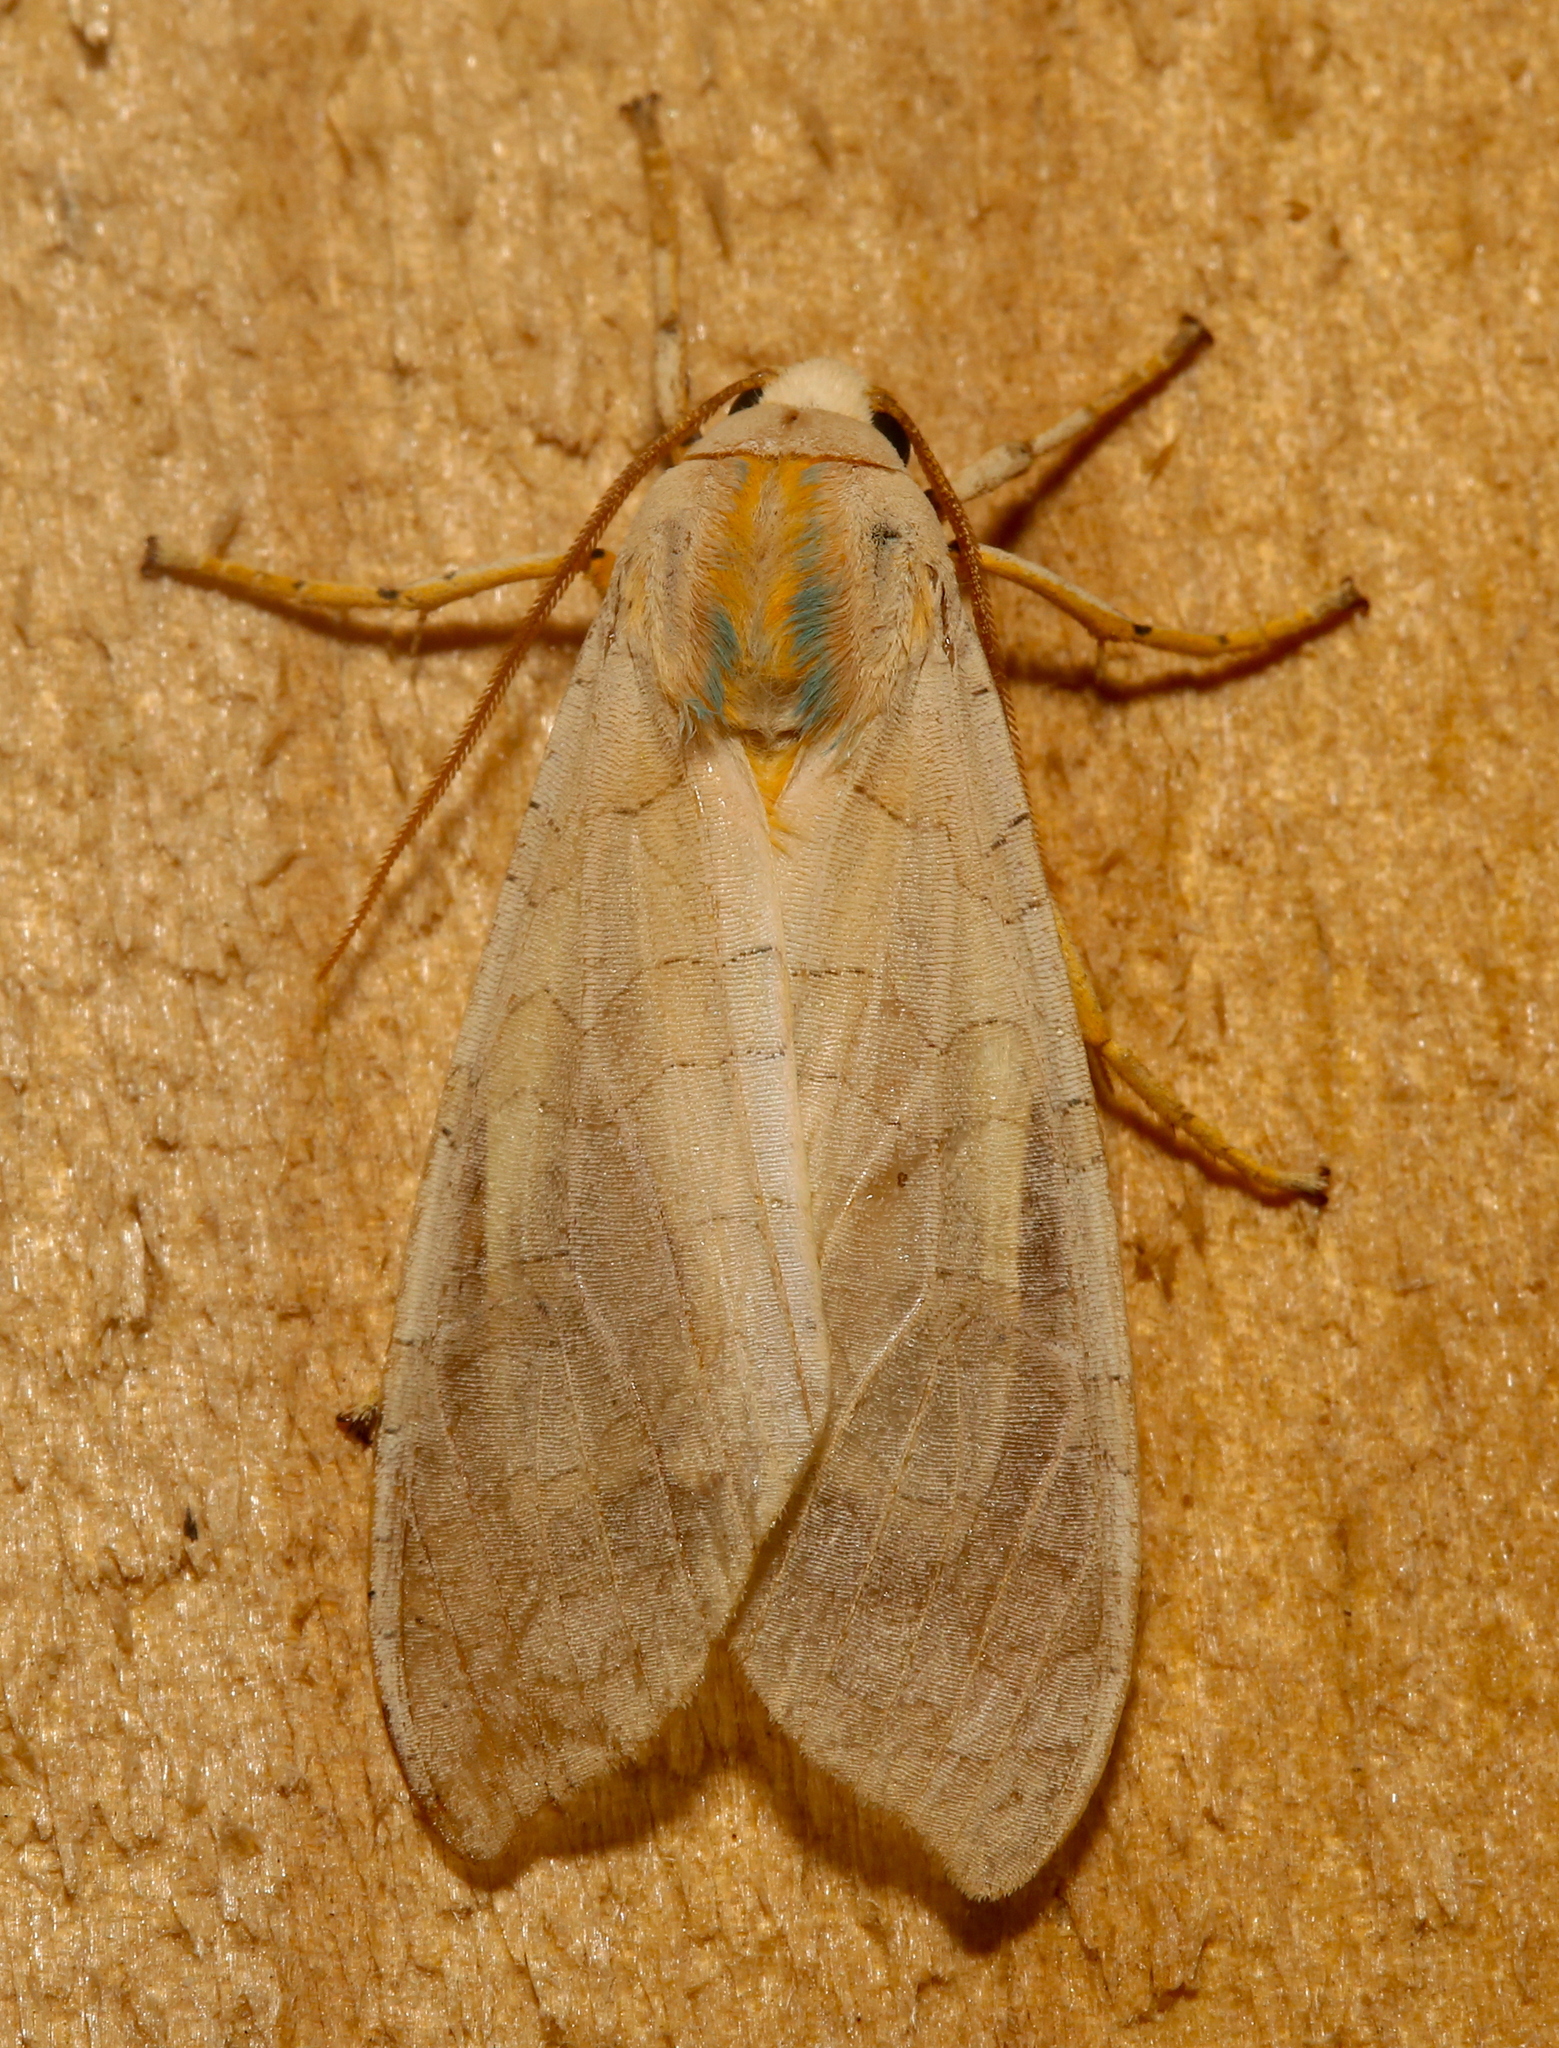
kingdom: Animalia
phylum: Arthropoda
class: Insecta
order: Lepidoptera
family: Erebidae
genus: Halysidota
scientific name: Halysidota
